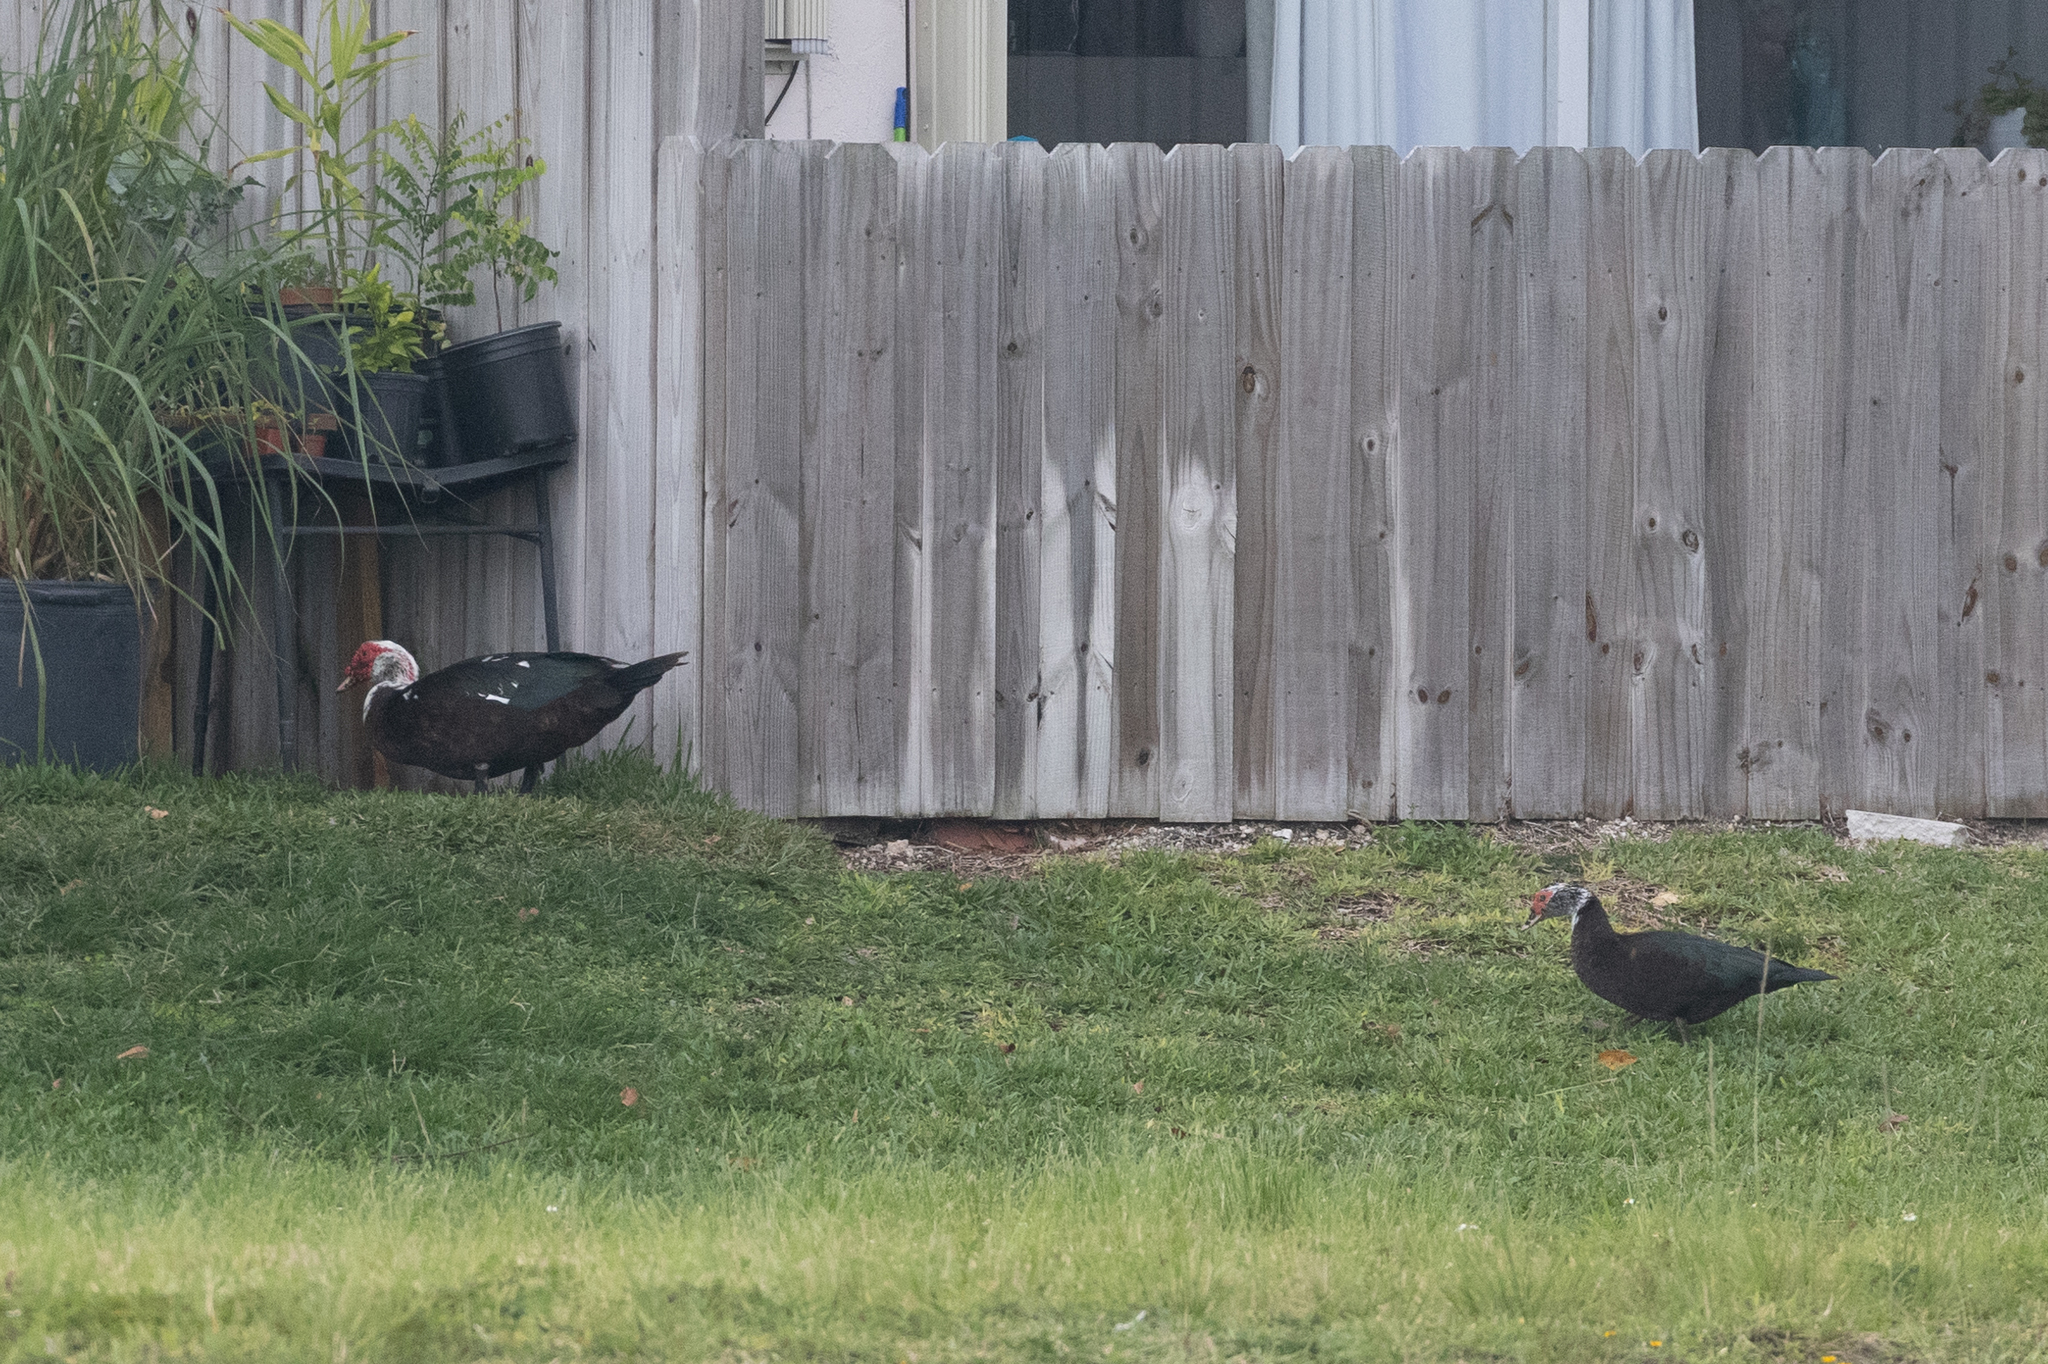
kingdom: Animalia
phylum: Chordata
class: Aves
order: Anseriformes
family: Anatidae
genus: Cairina
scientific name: Cairina moschata
